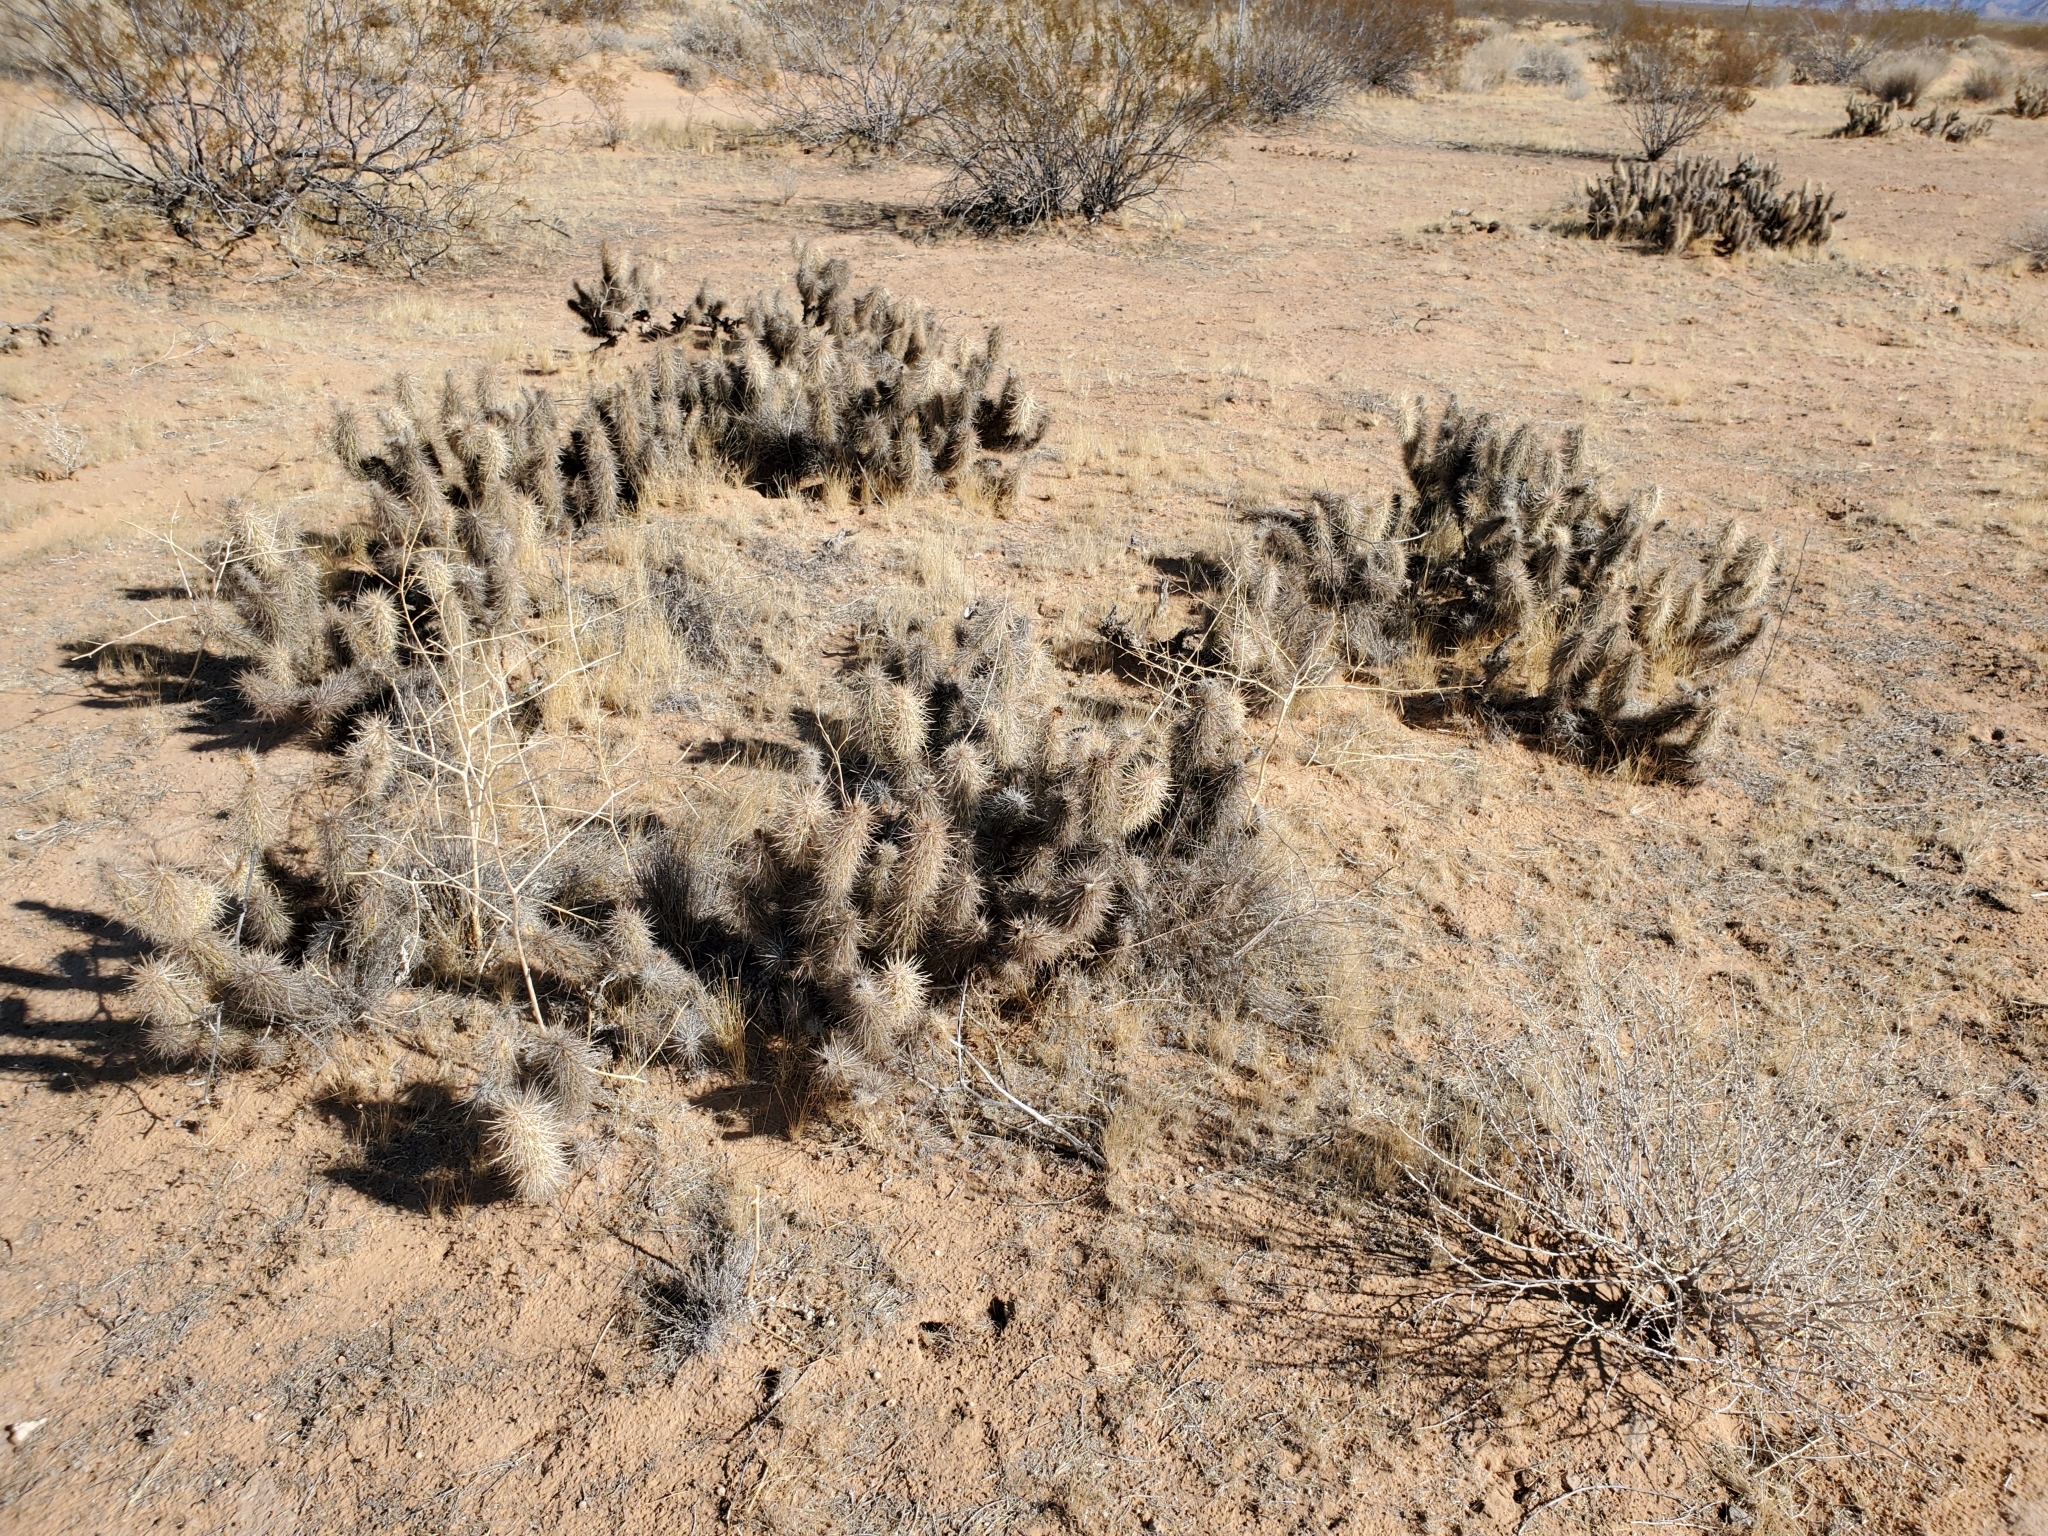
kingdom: Plantae
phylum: Tracheophyta
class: Magnoliopsida
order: Caryophyllales
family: Cactaceae
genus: Grusonia
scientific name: Grusonia kunzei
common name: Wright's club cholla
